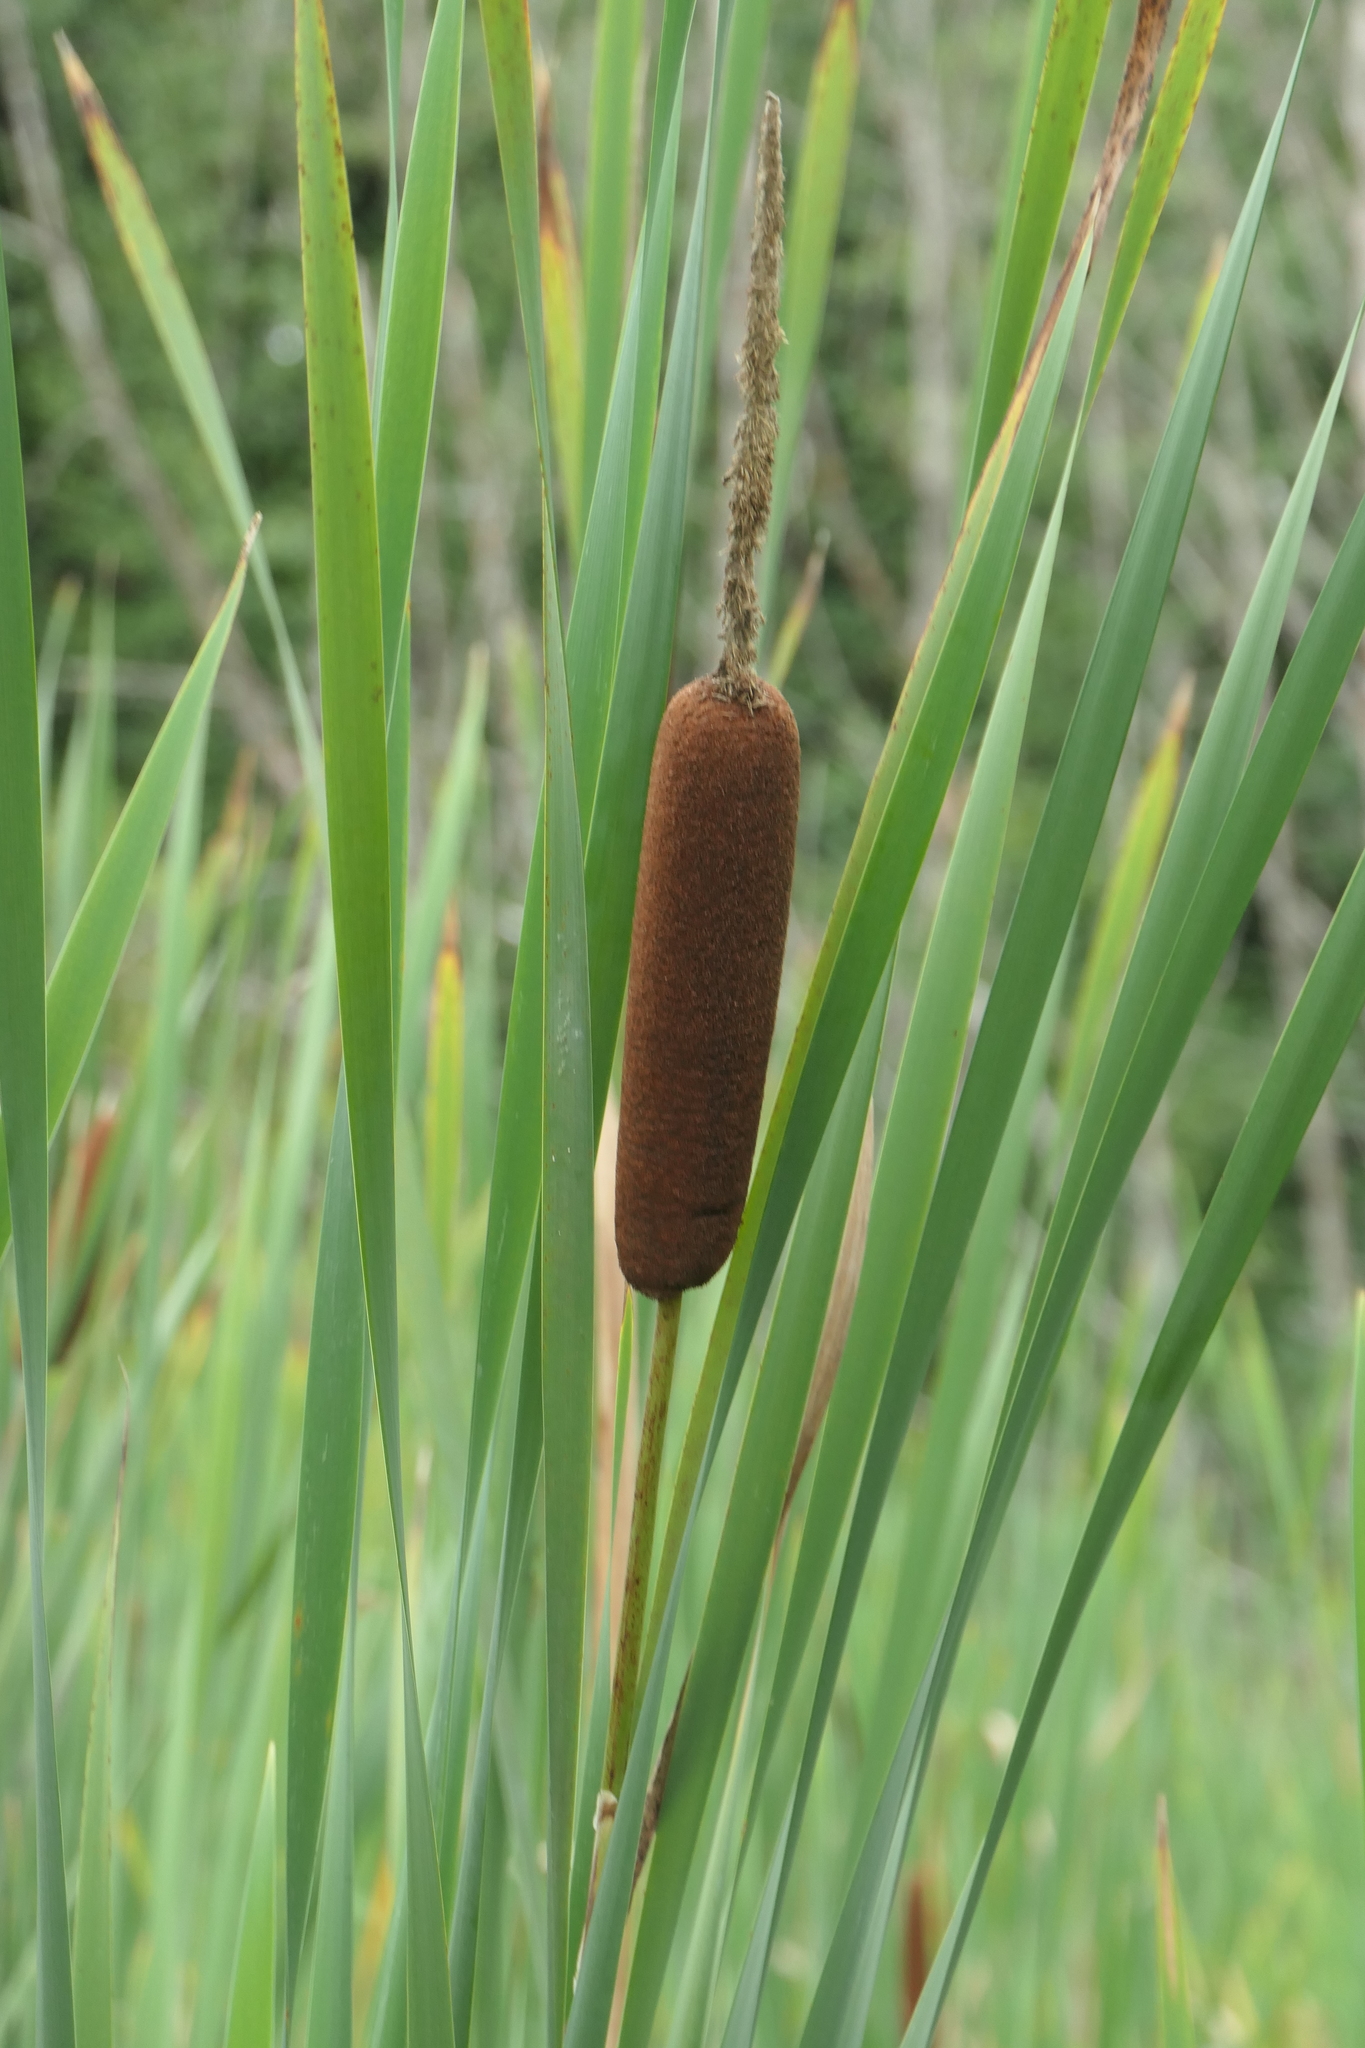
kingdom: Plantae
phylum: Tracheophyta
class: Liliopsida
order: Poales
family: Typhaceae
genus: Typha
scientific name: Typha latifolia
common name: Broadleaf cattail
